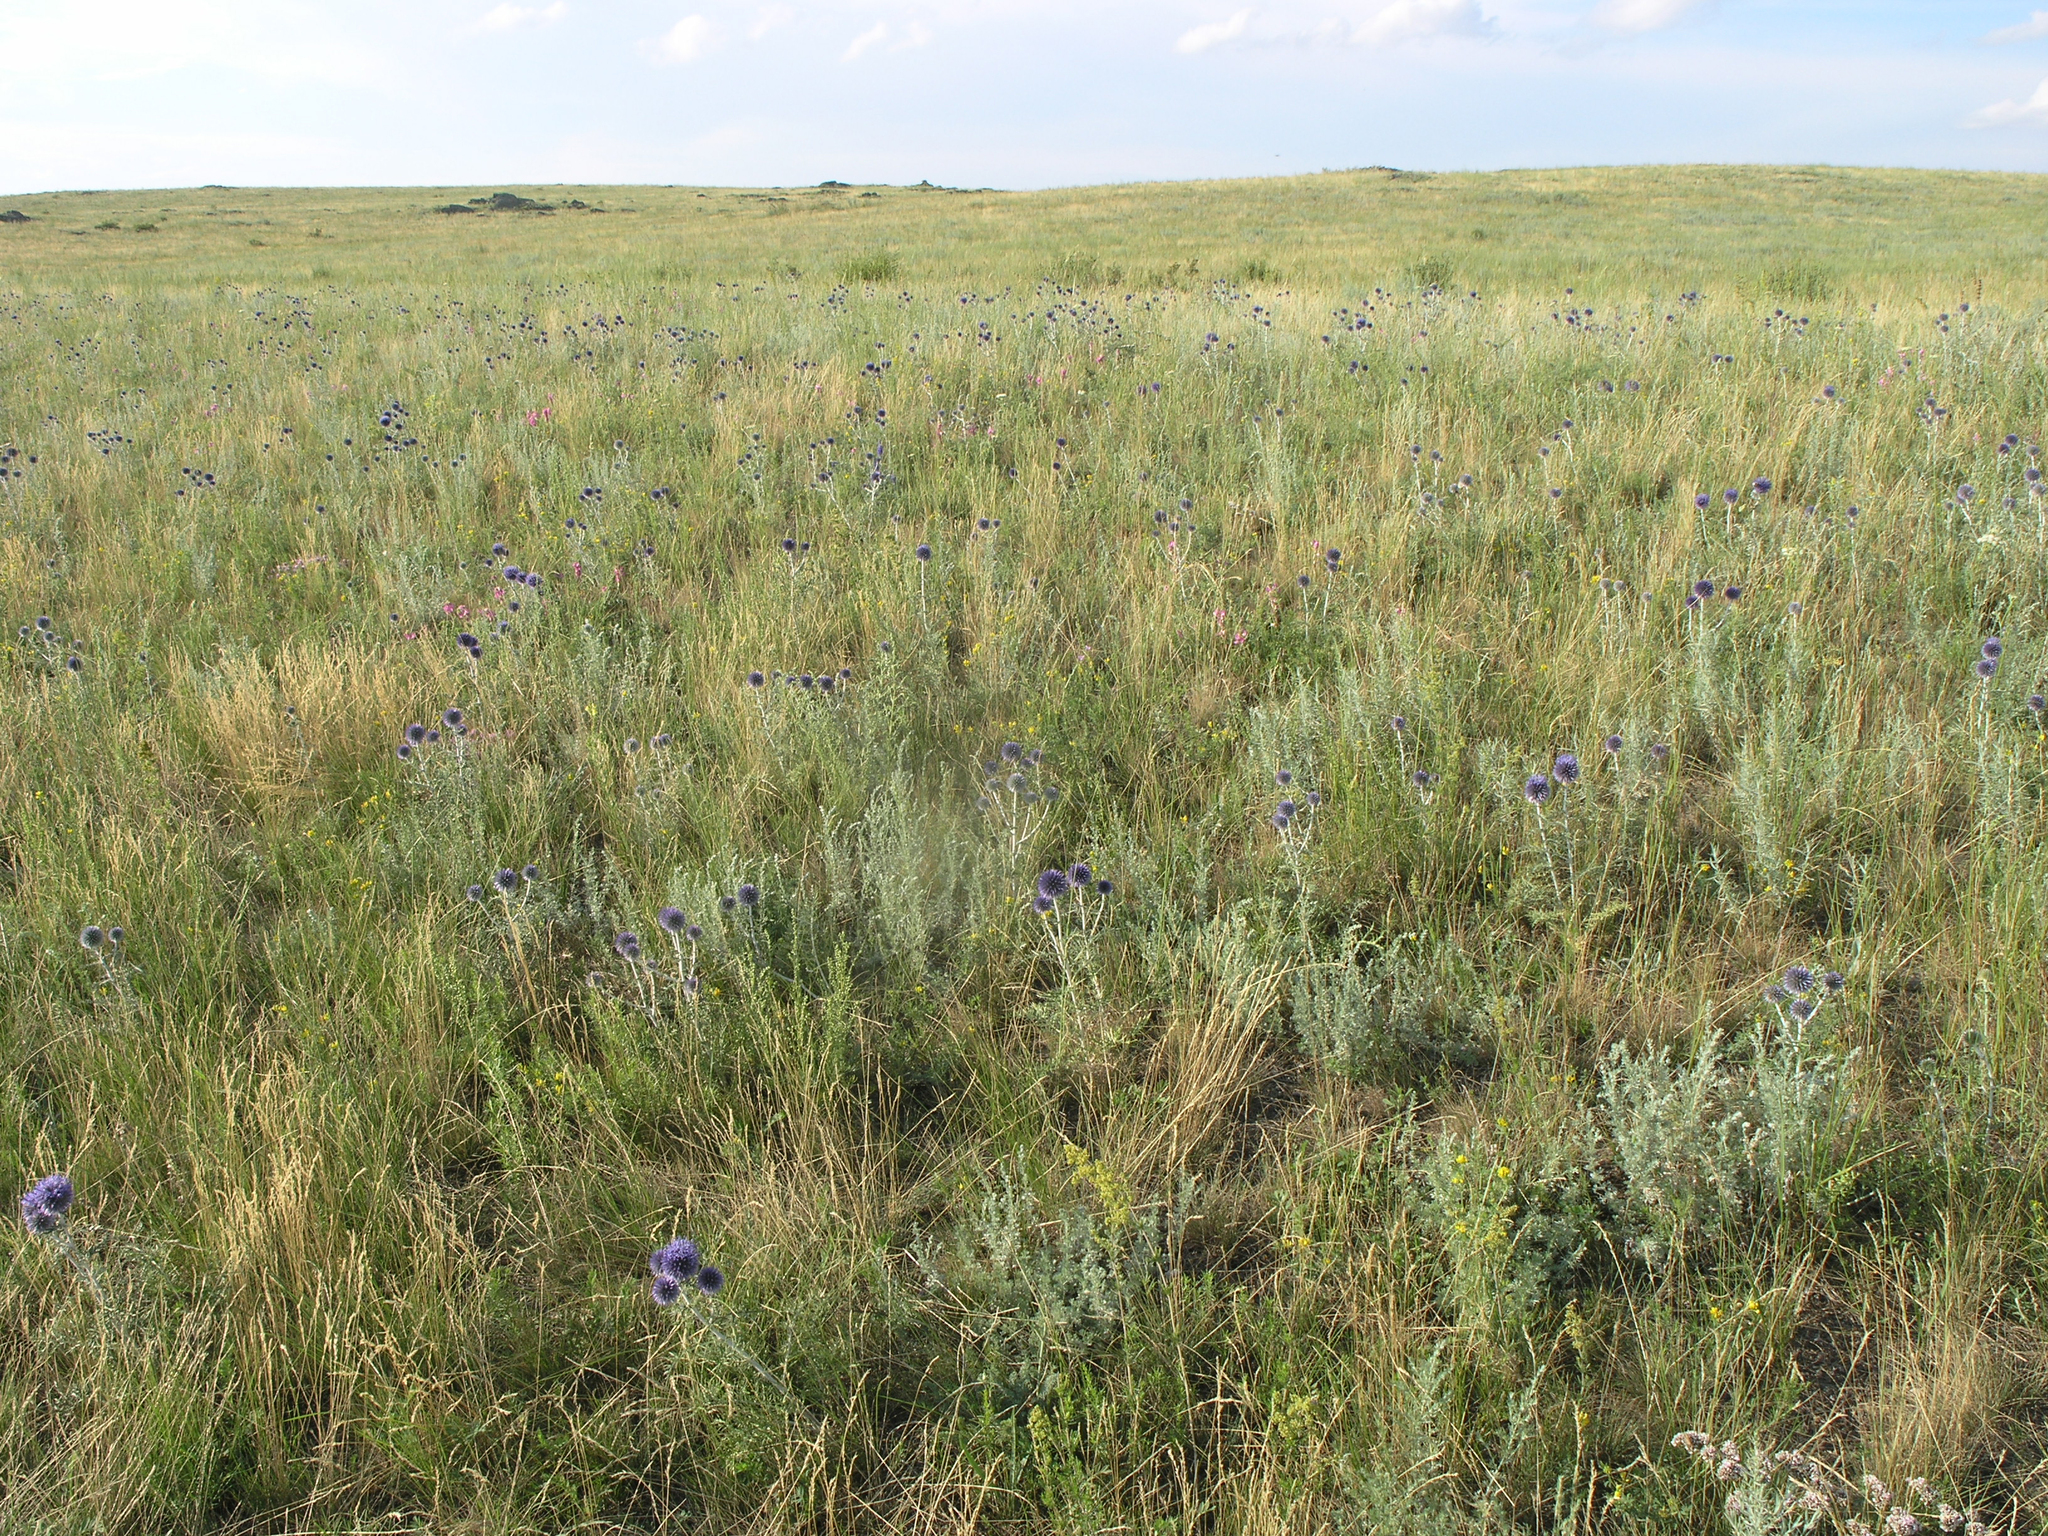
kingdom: Plantae
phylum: Tracheophyta
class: Magnoliopsida
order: Asterales
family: Asteraceae
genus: Echinops
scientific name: Echinops ritro
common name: Globe thistle
